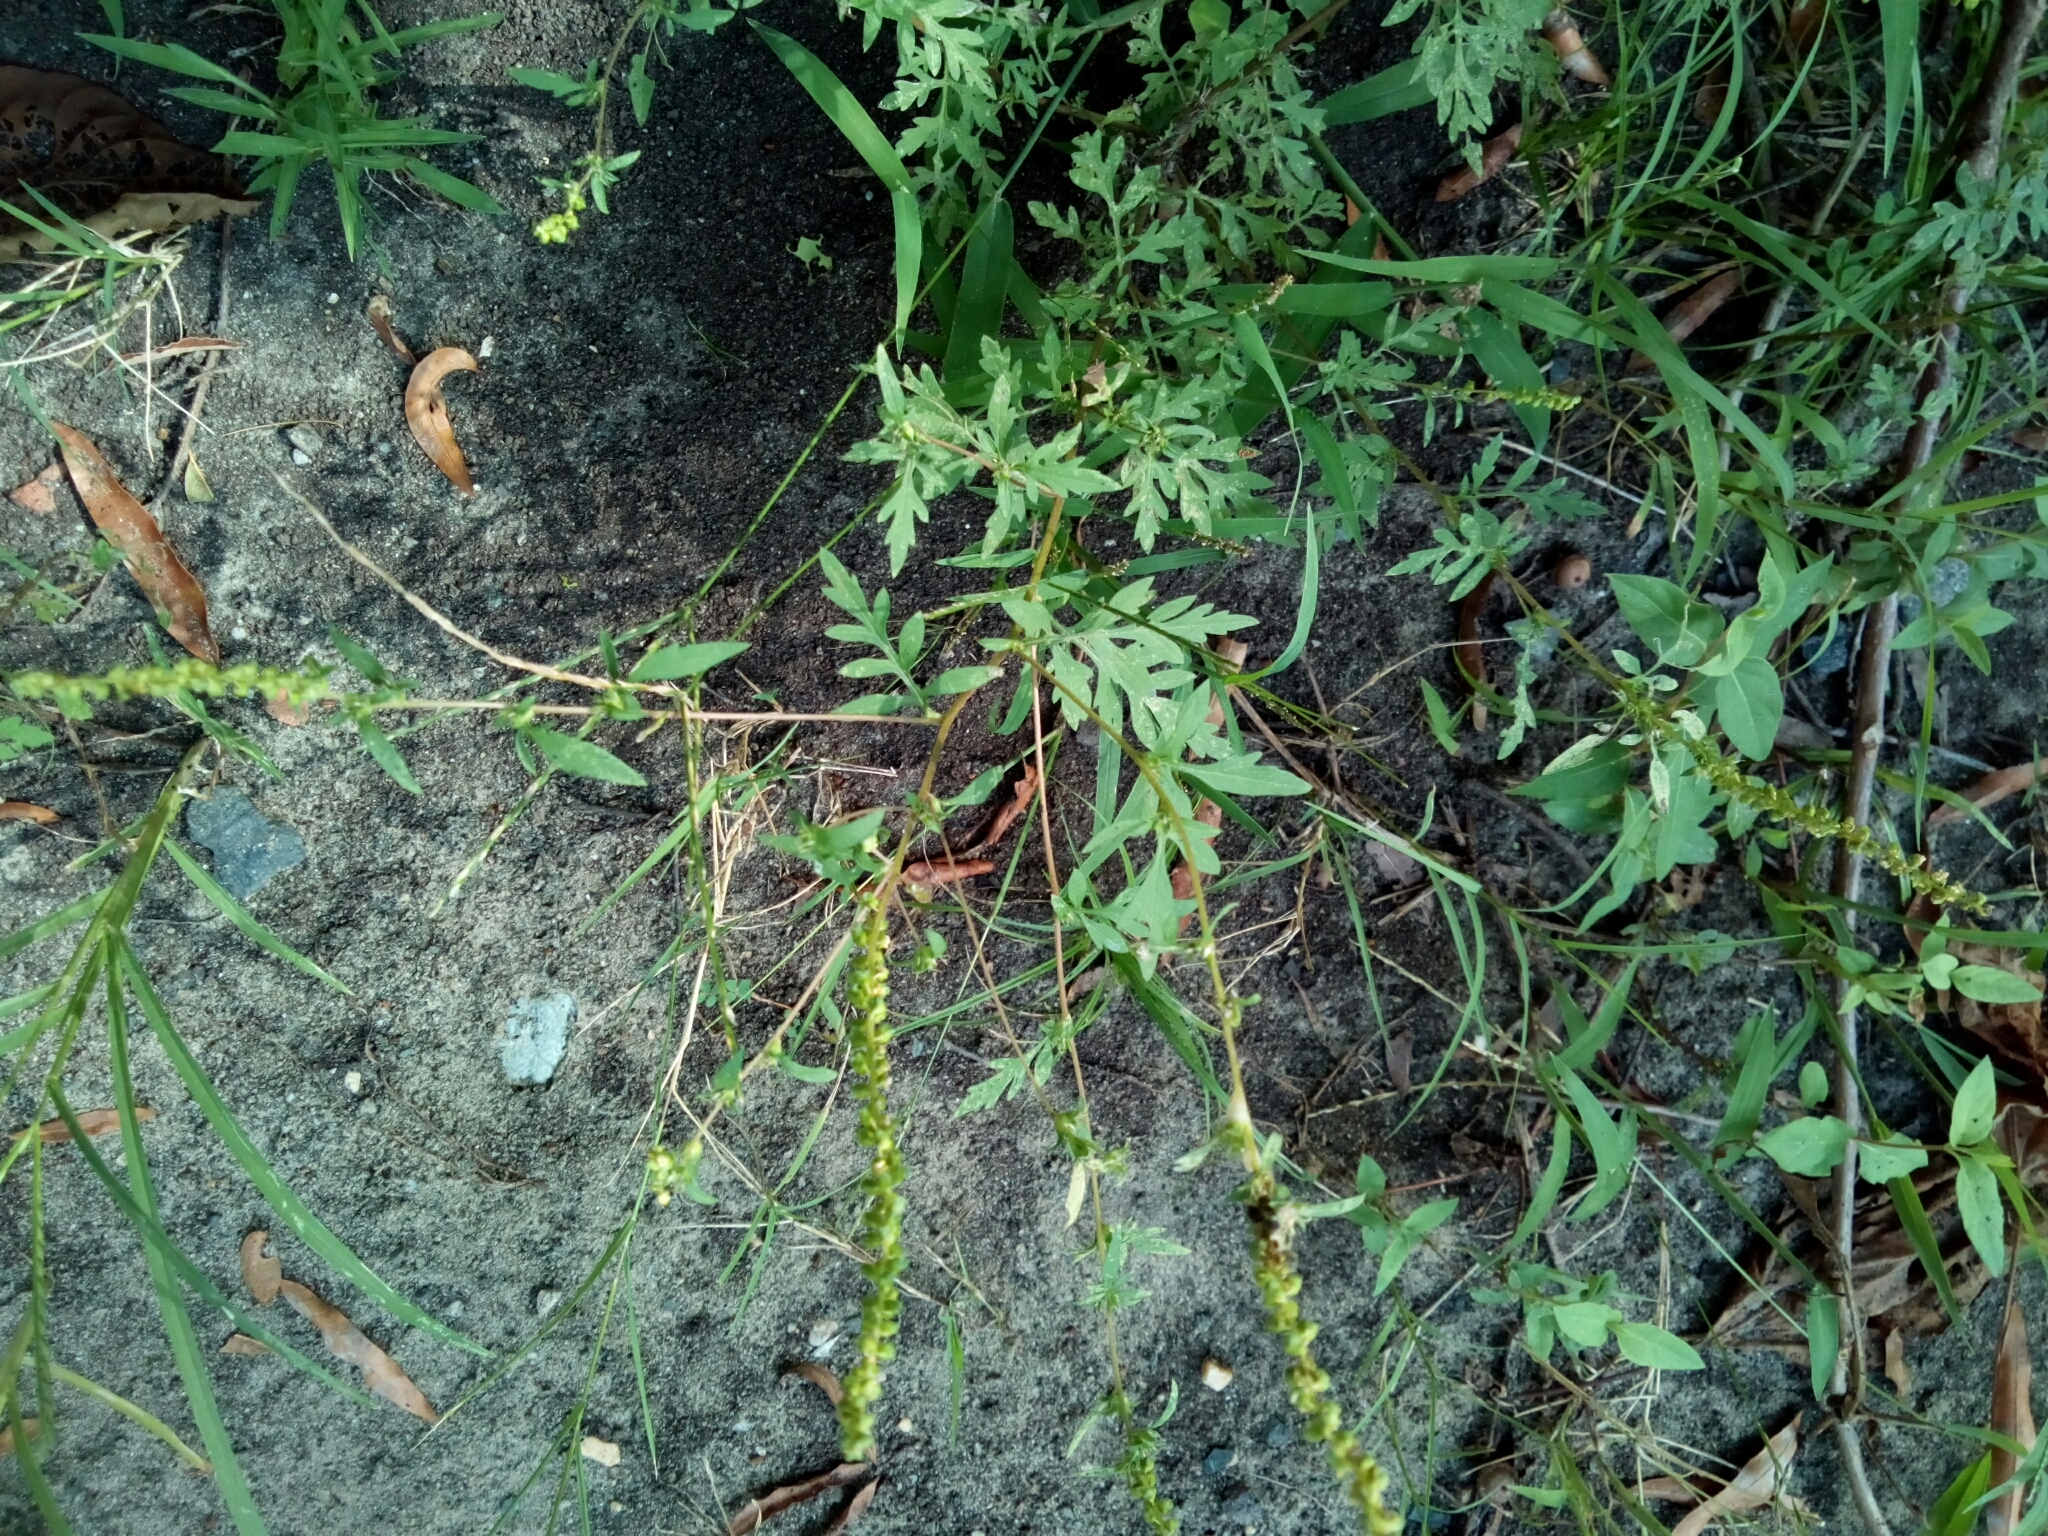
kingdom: Plantae
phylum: Tracheophyta
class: Magnoliopsida
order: Asterales
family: Asteraceae
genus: Ambrosia
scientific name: Ambrosia artemisiifolia
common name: Annual ragweed
